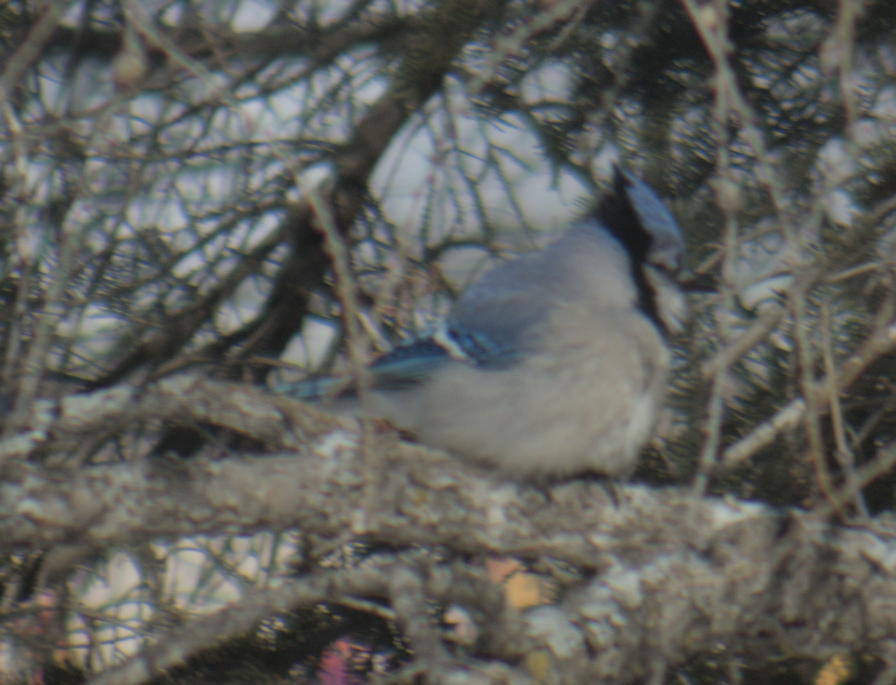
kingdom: Animalia
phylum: Chordata
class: Aves
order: Passeriformes
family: Corvidae
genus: Cyanocitta
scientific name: Cyanocitta cristata
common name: Blue jay
